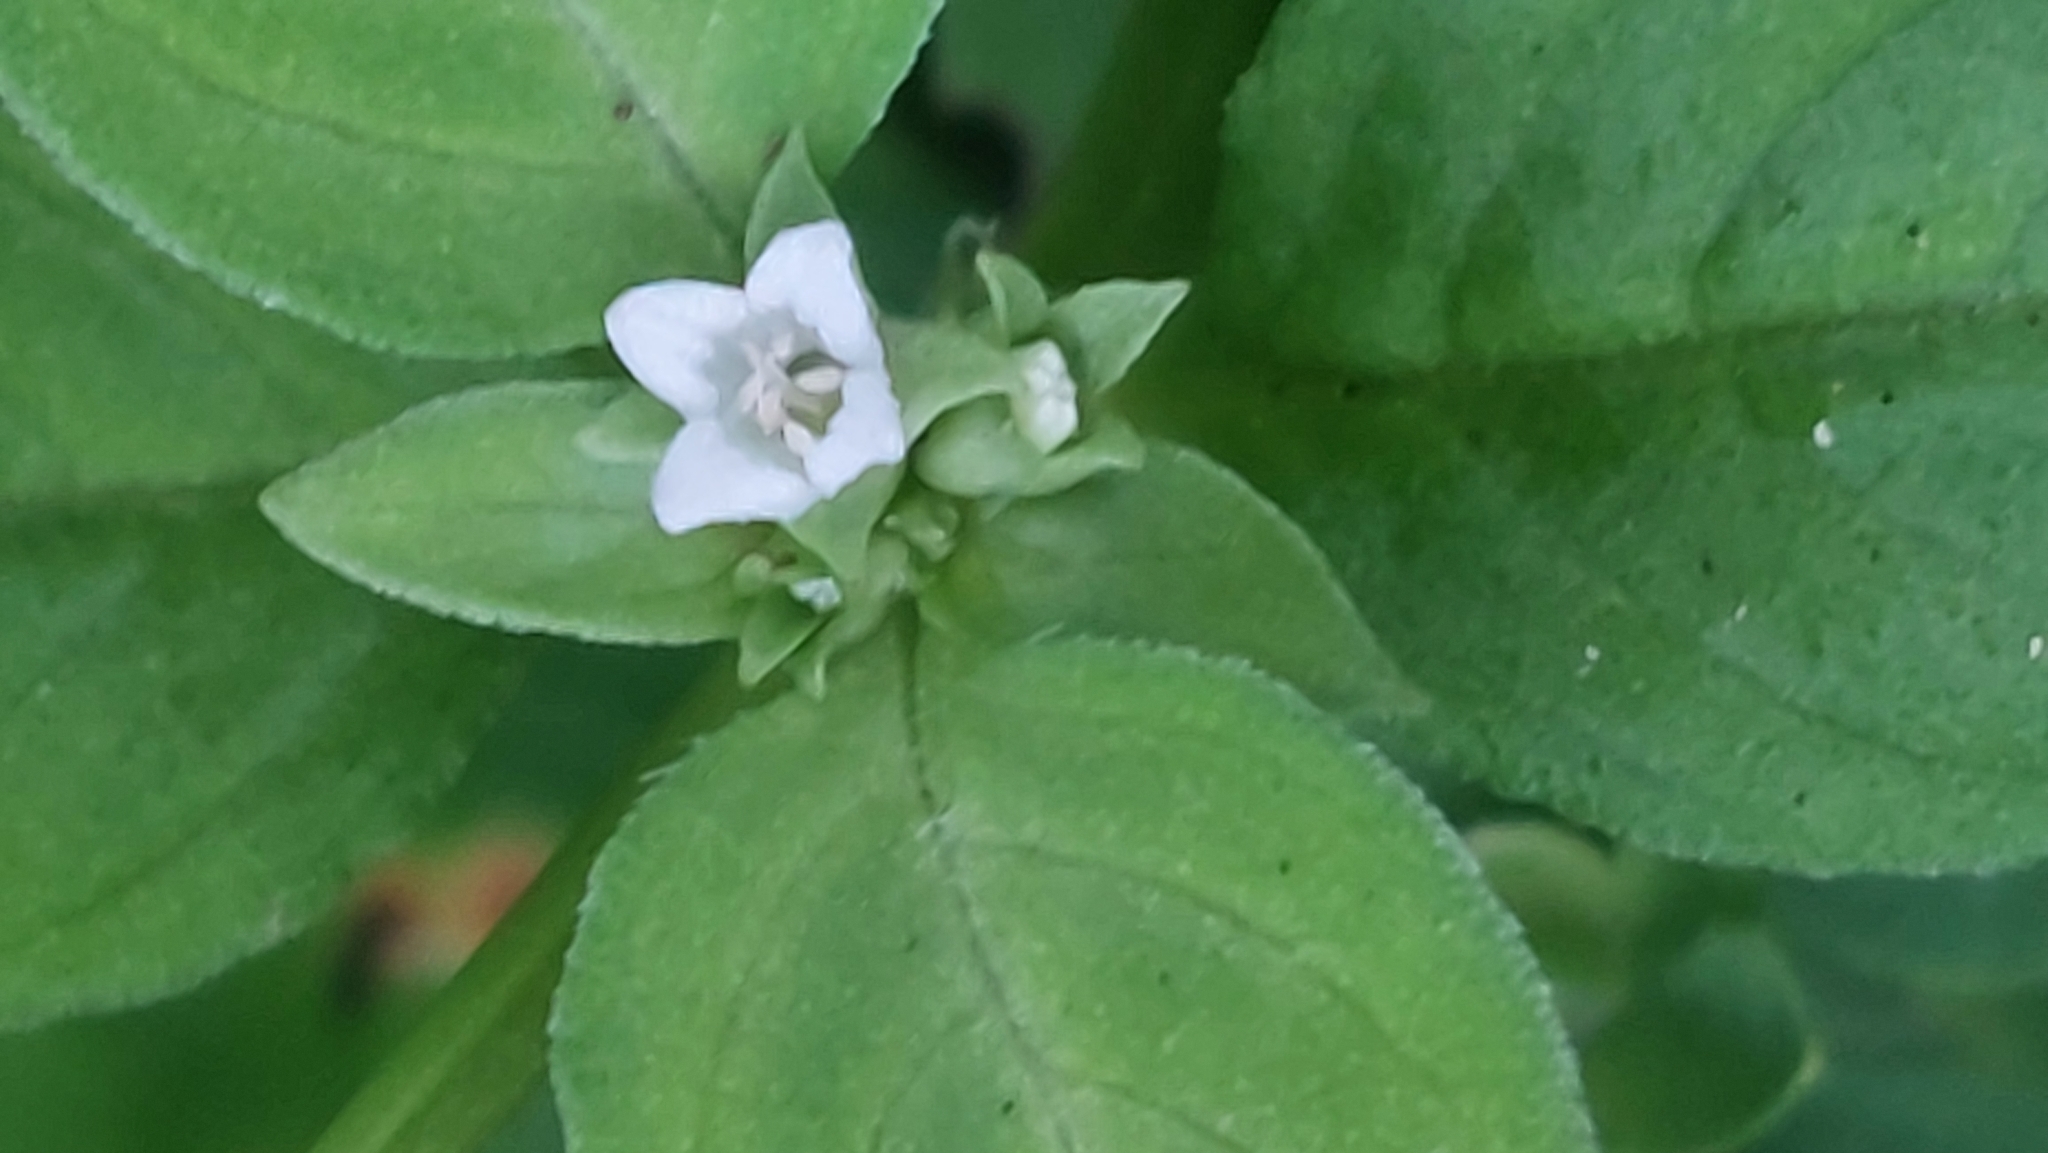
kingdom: Plantae
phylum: Tracheophyta
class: Magnoliopsida
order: Gentianales
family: Rubiaceae
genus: Neanotis
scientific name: Neanotis hirsuta
